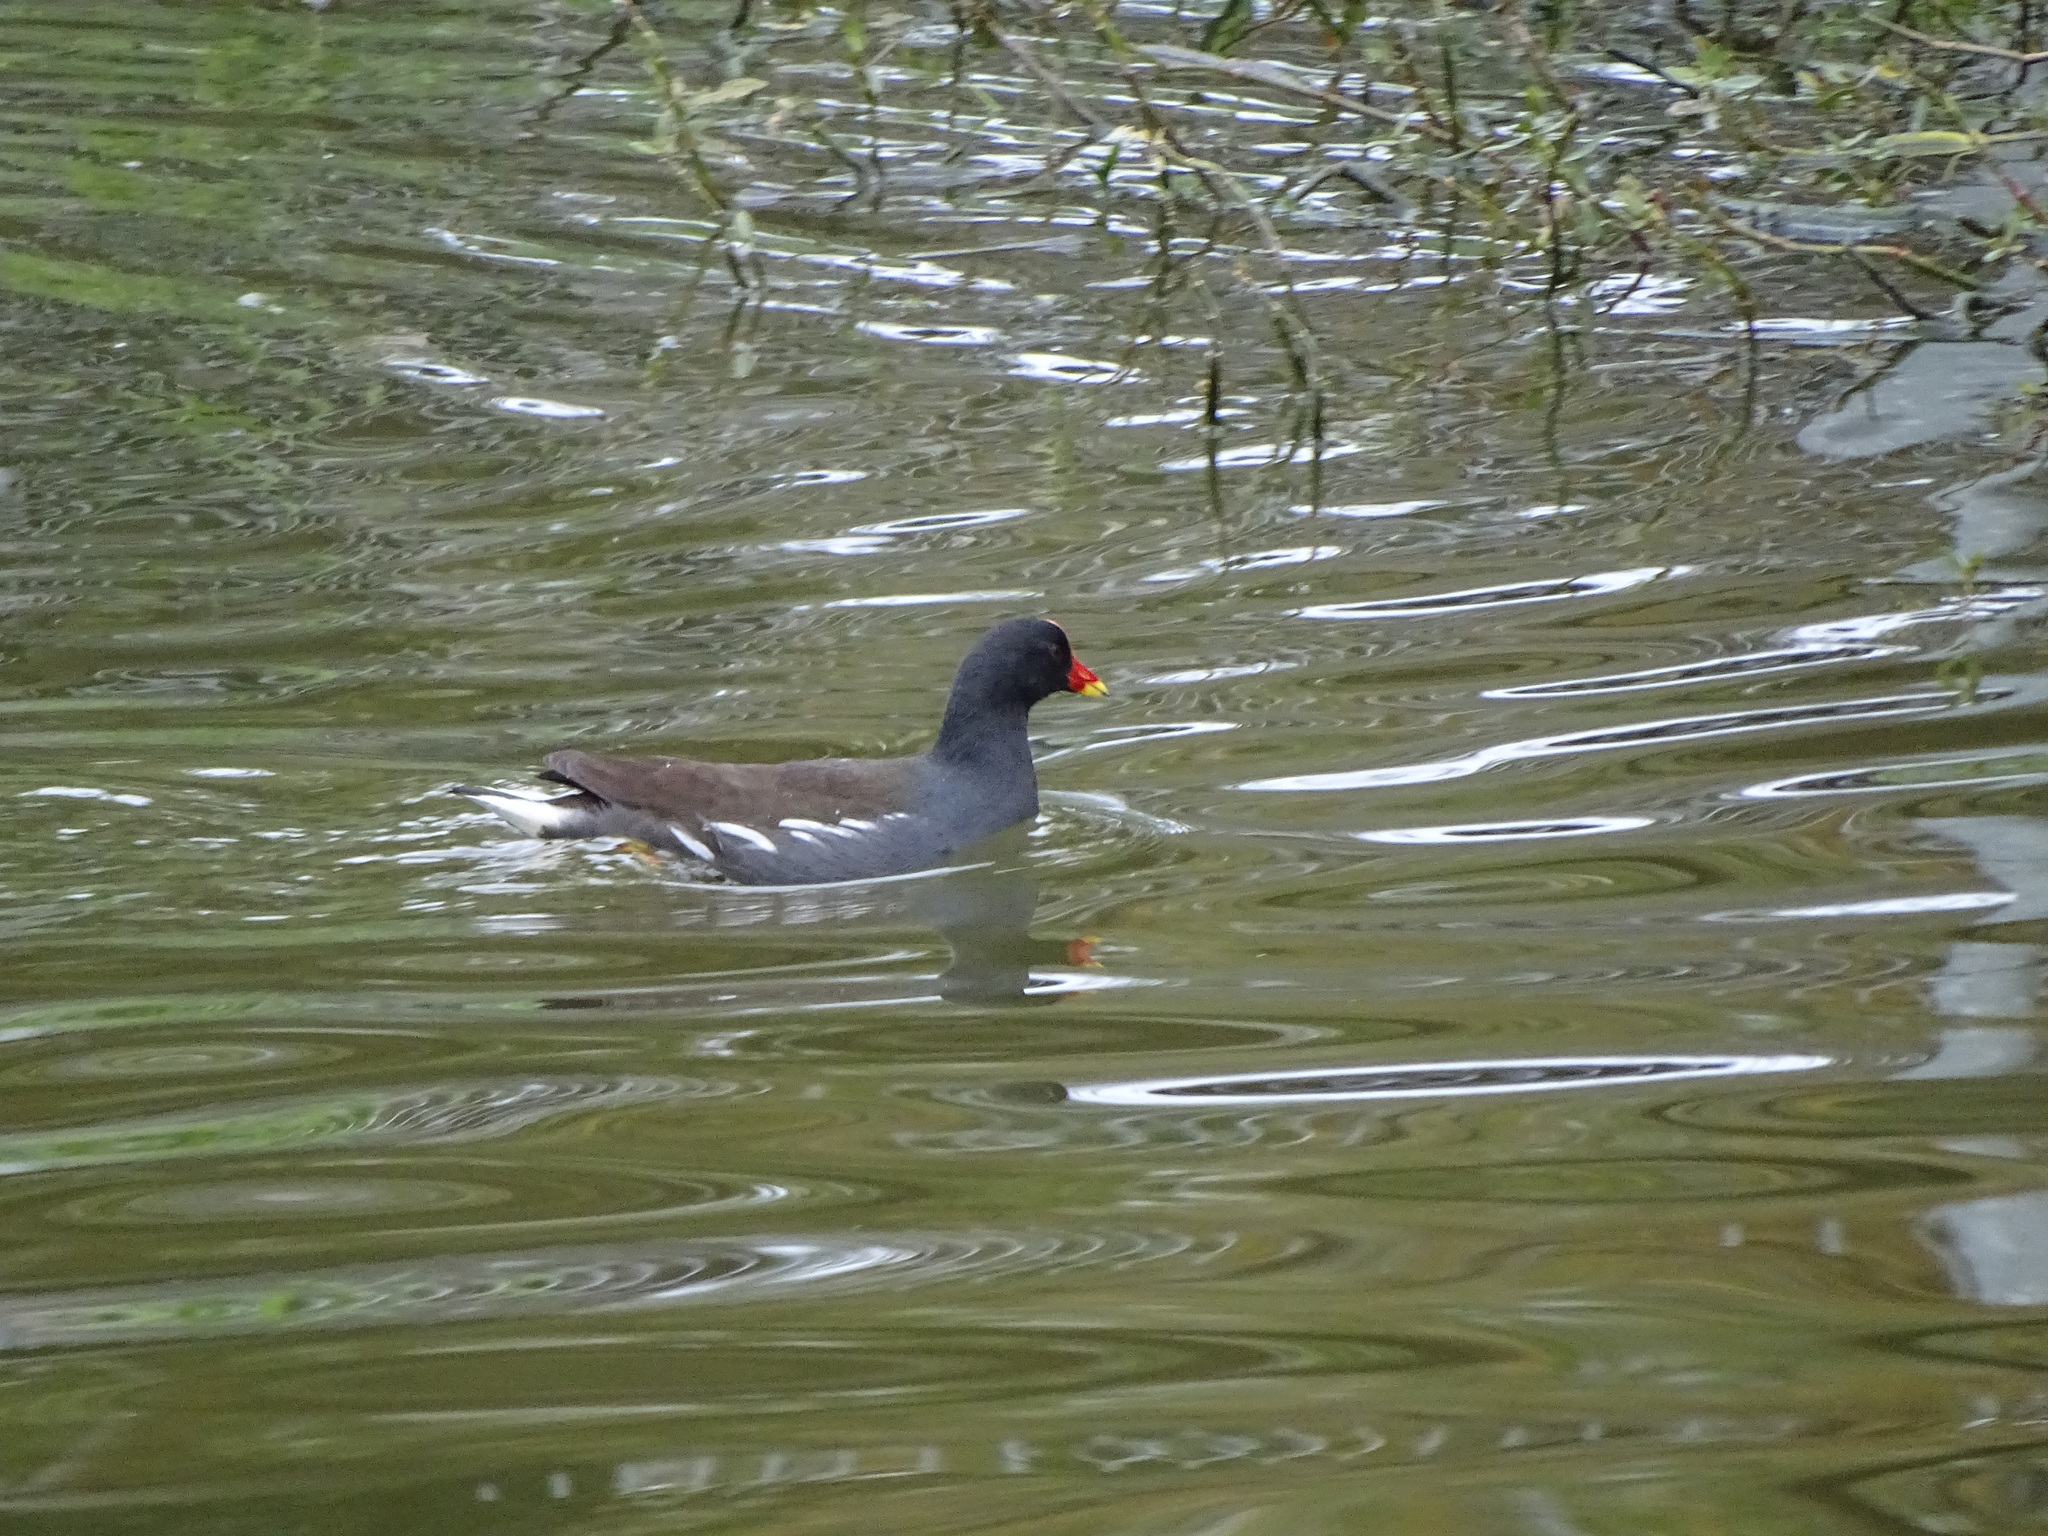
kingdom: Animalia
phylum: Chordata
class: Aves
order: Gruiformes
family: Rallidae
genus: Gallinula
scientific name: Gallinula chloropus
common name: Common moorhen
